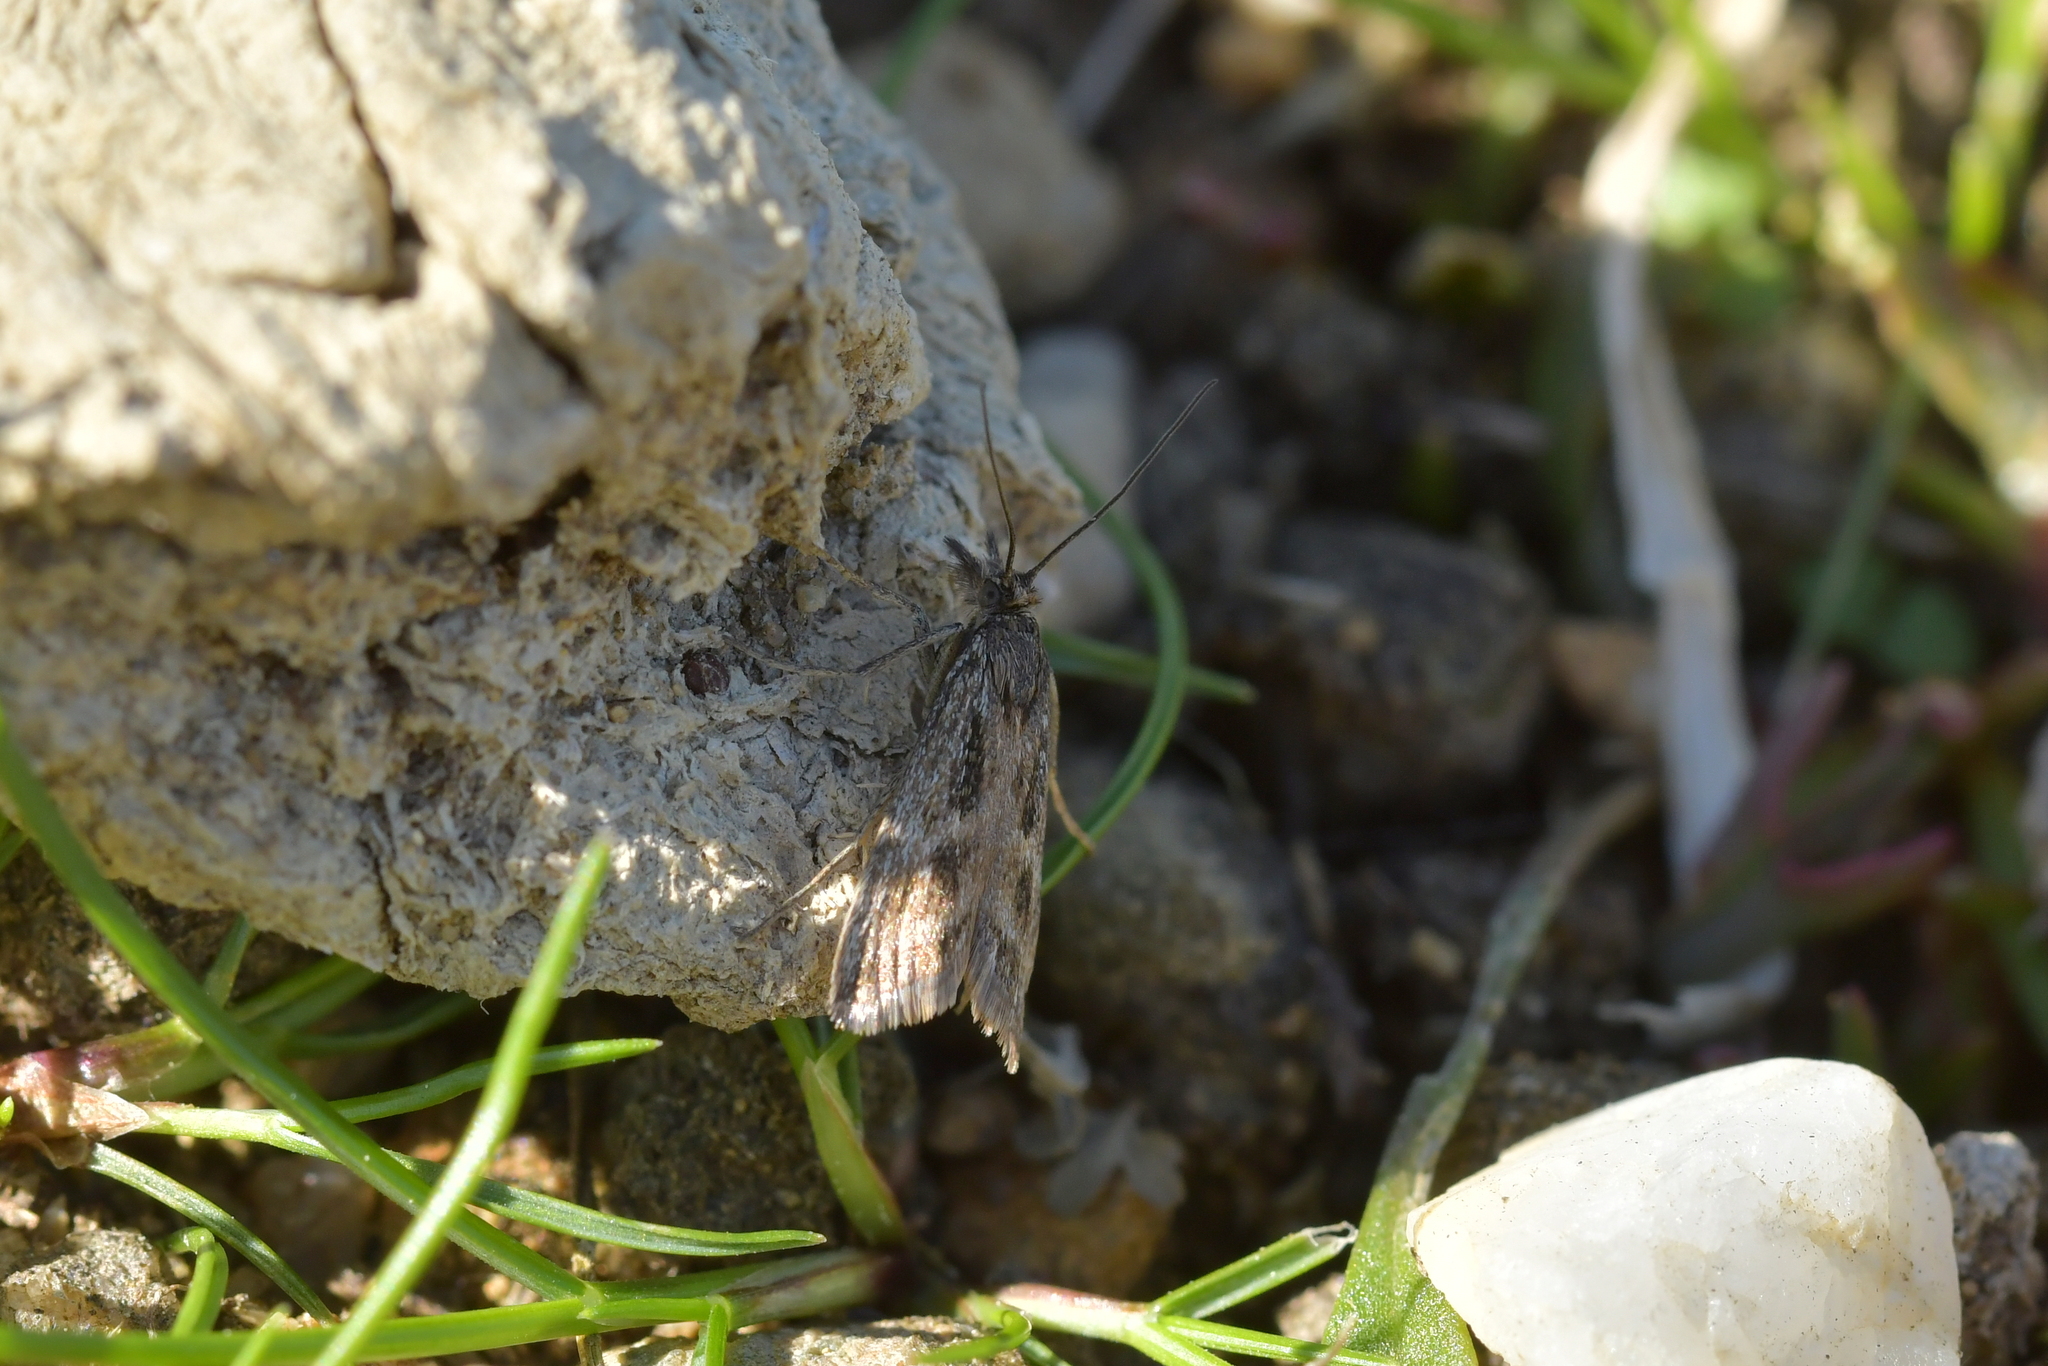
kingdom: Animalia
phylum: Arthropoda
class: Insecta
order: Lepidoptera
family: Crambidae
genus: Orocrambus
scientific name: Orocrambus corruptus
